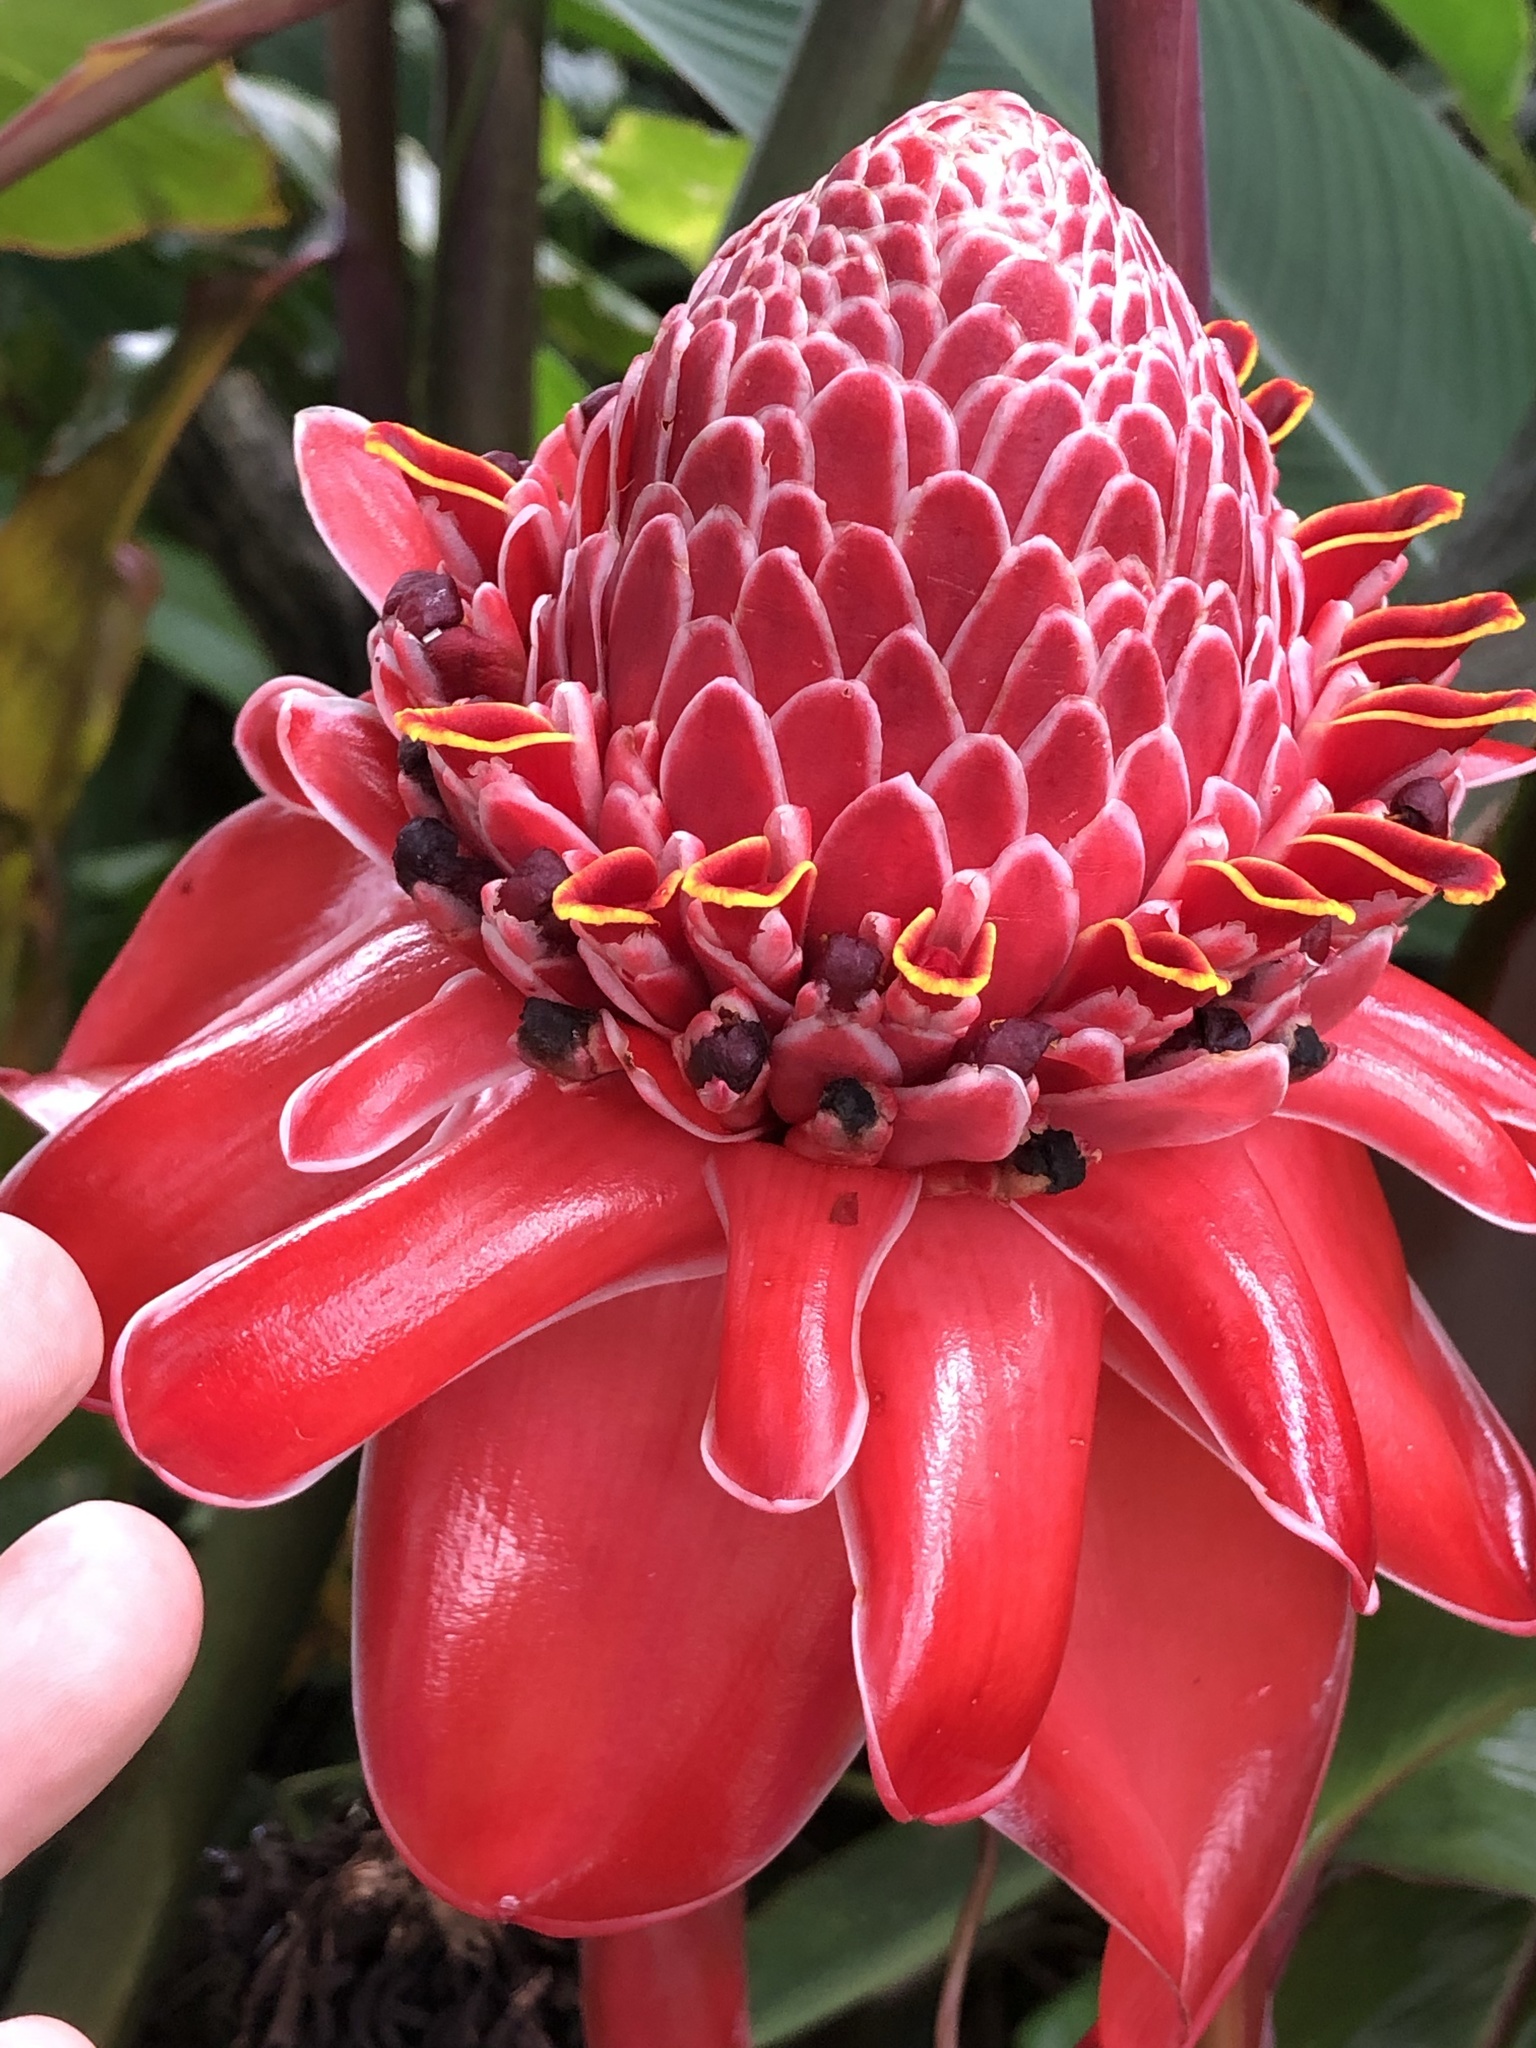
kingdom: Plantae
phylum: Tracheophyta
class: Liliopsida
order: Zingiberales
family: Zingiberaceae
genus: Etlingera
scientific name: Etlingera elatior
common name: Philippine waxflower
